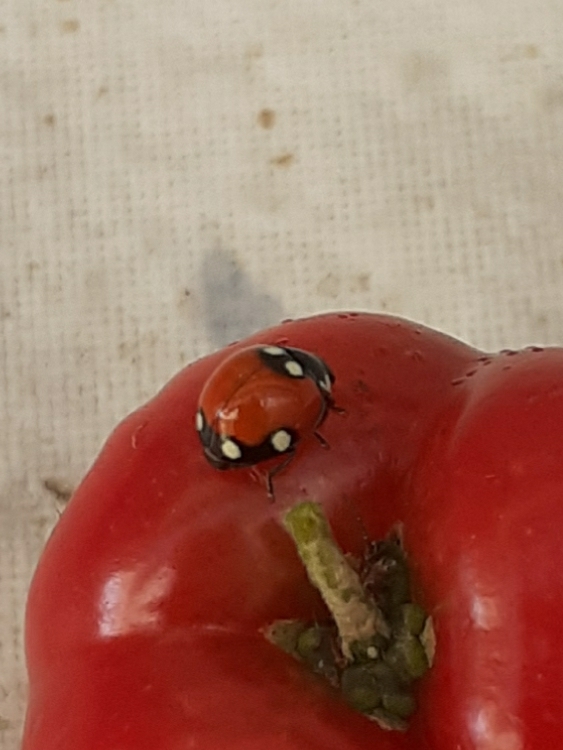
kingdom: Animalia
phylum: Arthropoda
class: Insecta
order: Coleoptera
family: Coccinellidae
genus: Cycloneda
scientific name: Cycloneda
